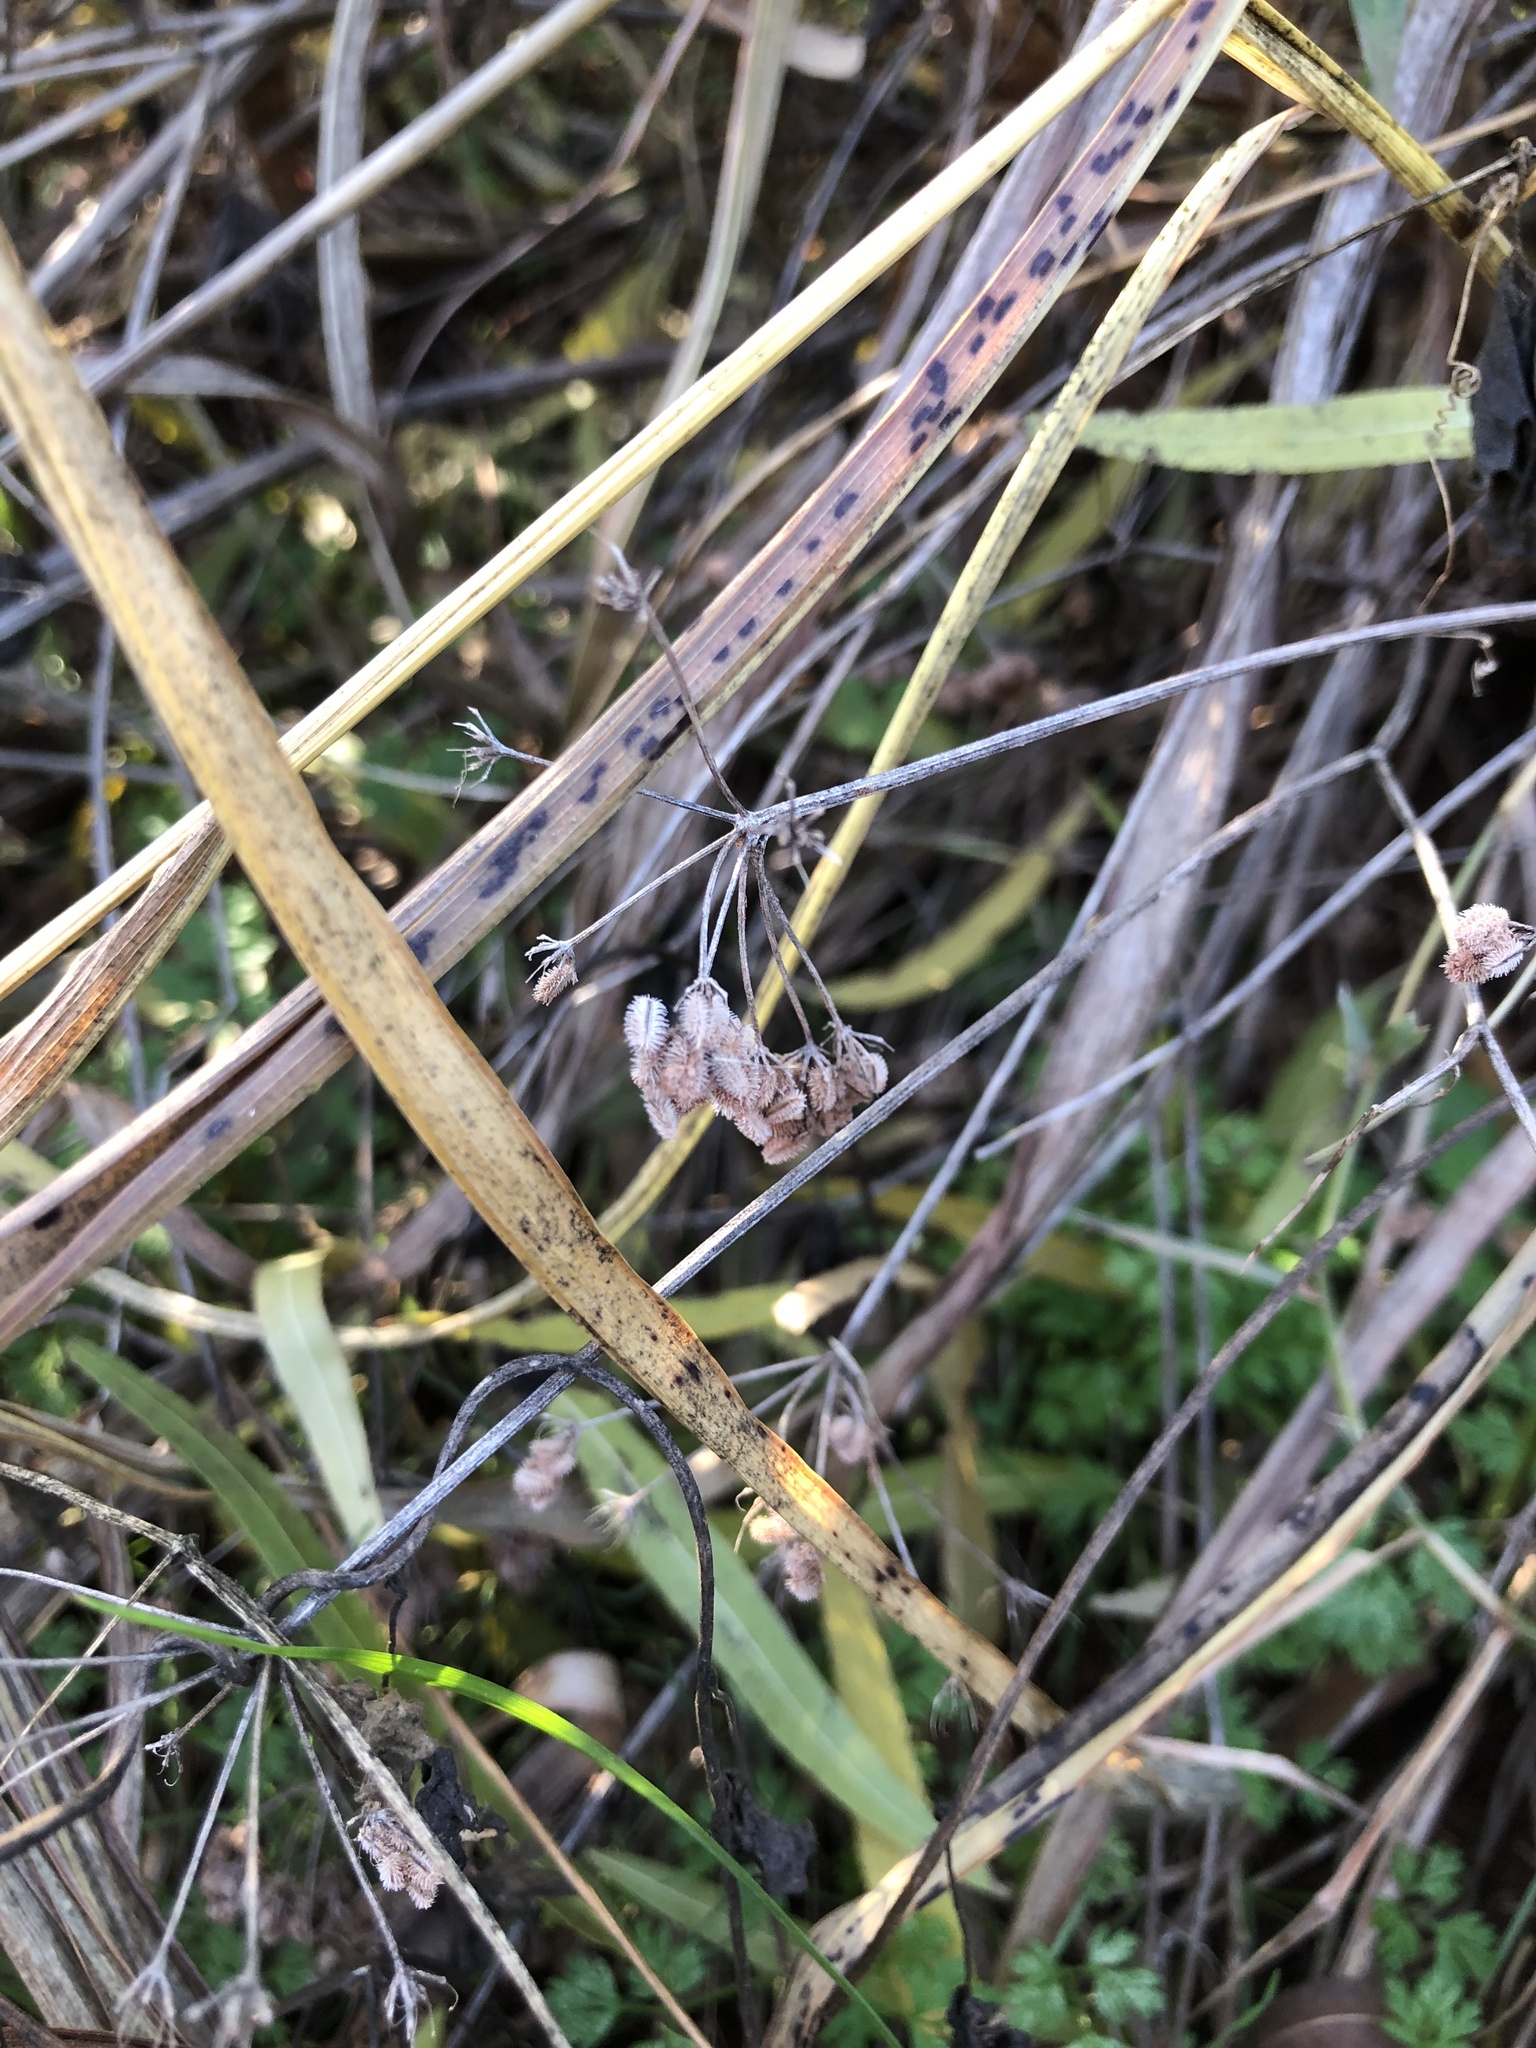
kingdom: Plantae
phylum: Tracheophyta
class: Magnoliopsida
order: Apiales
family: Apiaceae
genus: Torilis
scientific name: Torilis arvensis
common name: Spreading hedge-parsley
